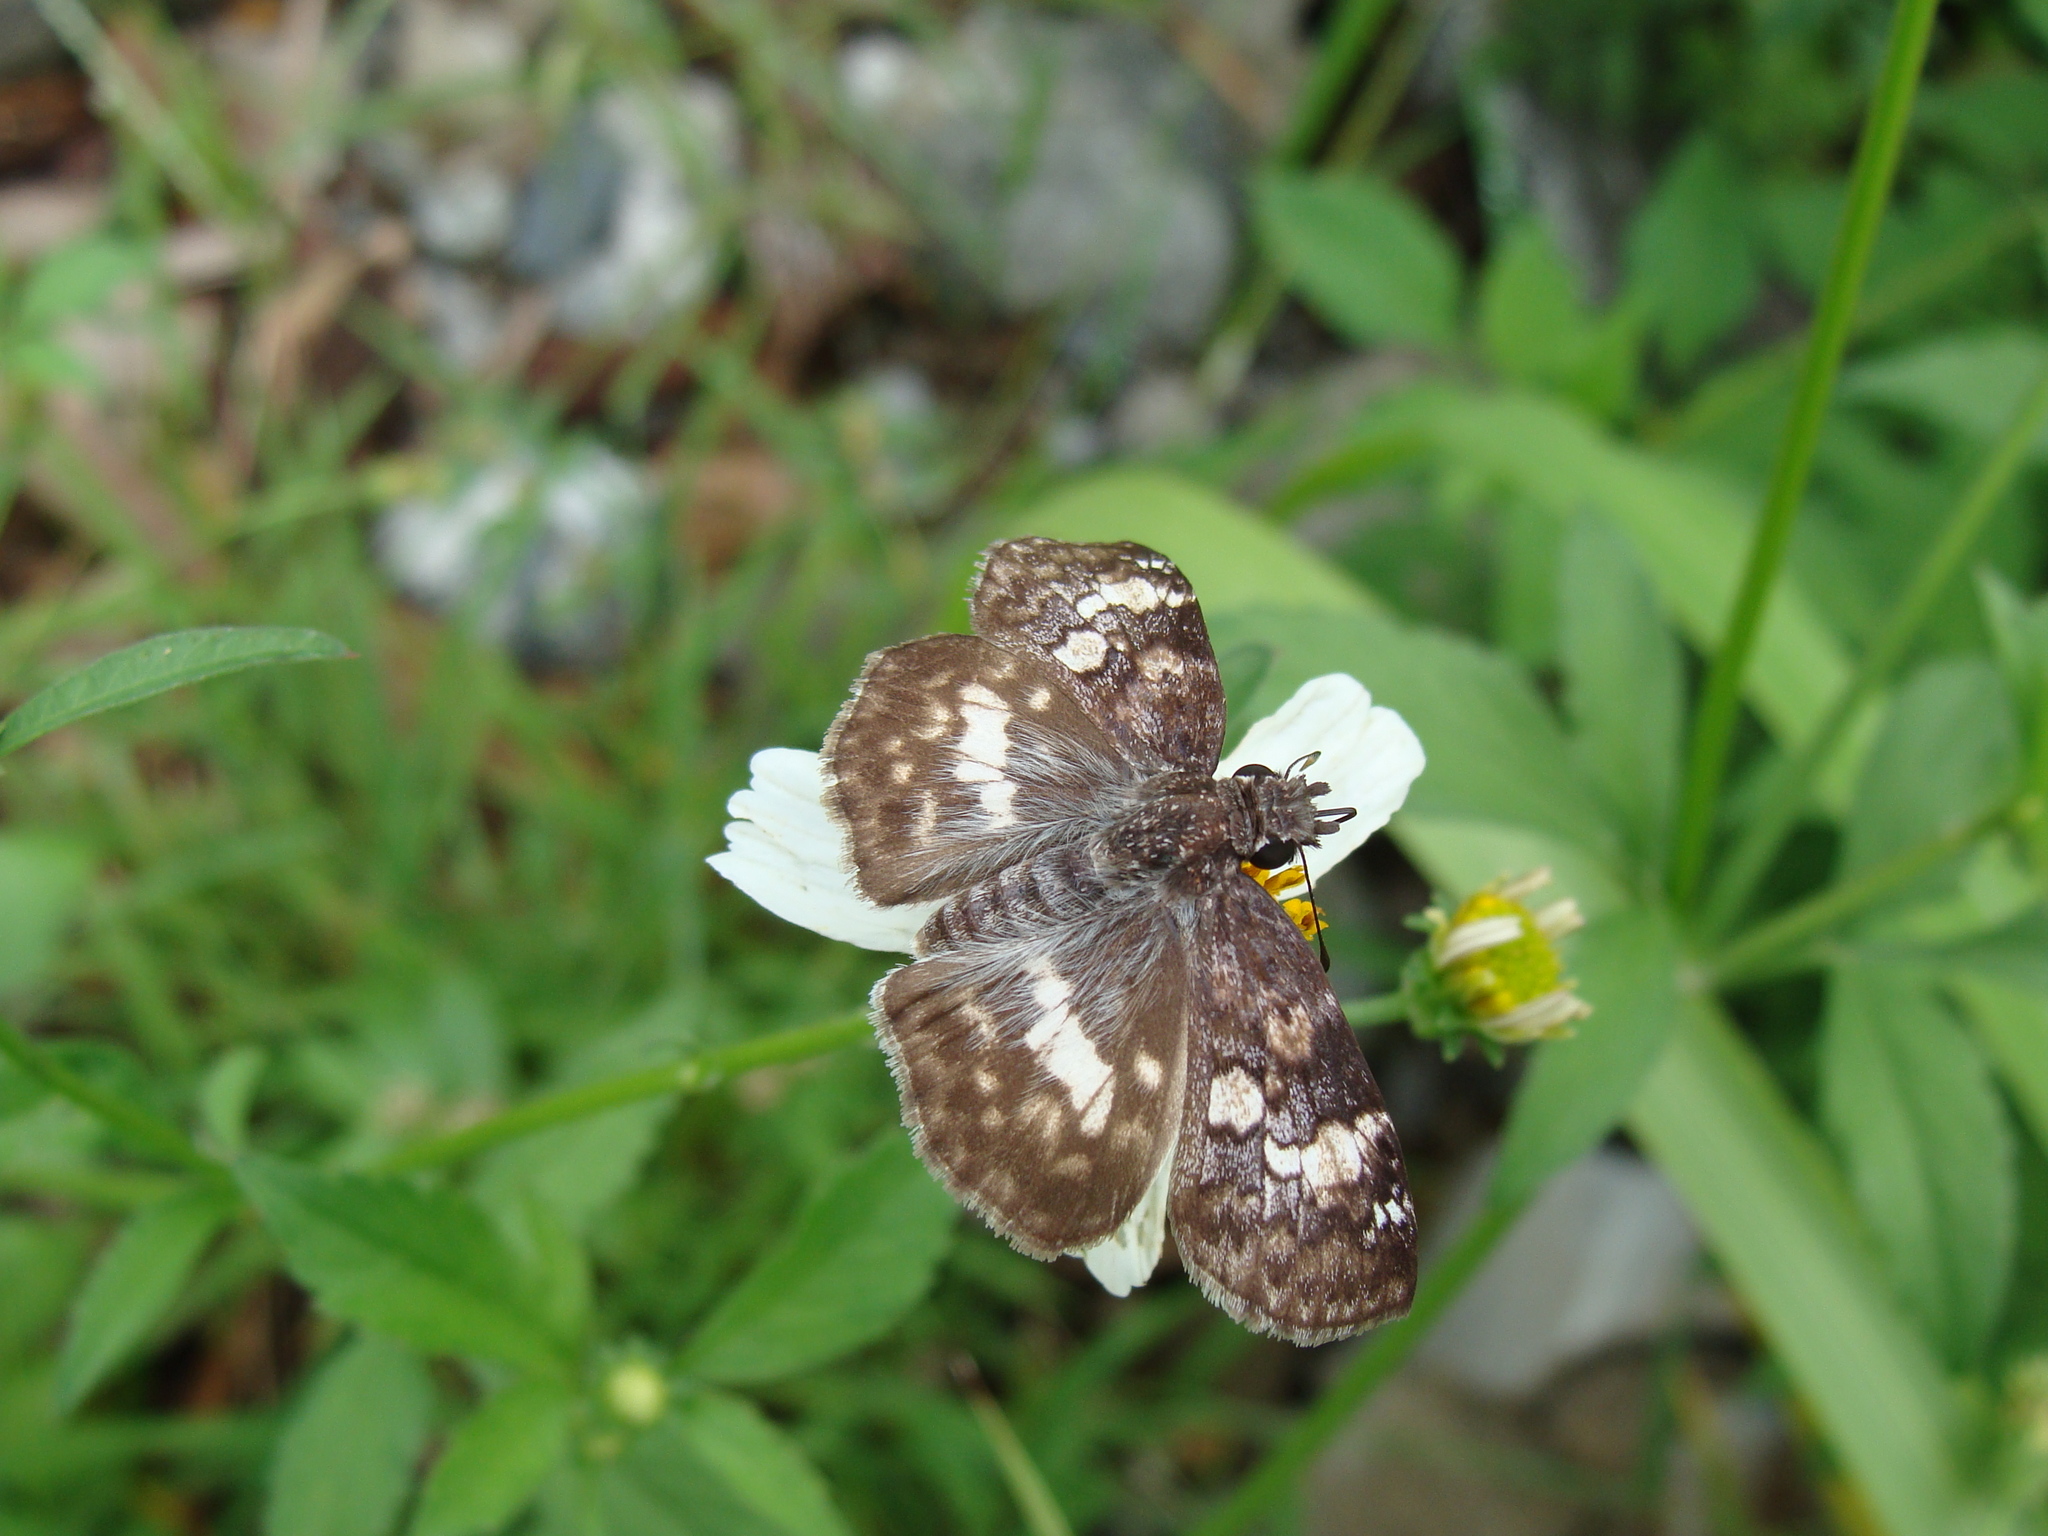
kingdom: Animalia
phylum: Arthropoda
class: Insecta
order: Lepidoptera
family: Hesperiidae
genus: Chiothion
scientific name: Chiothion georgina
